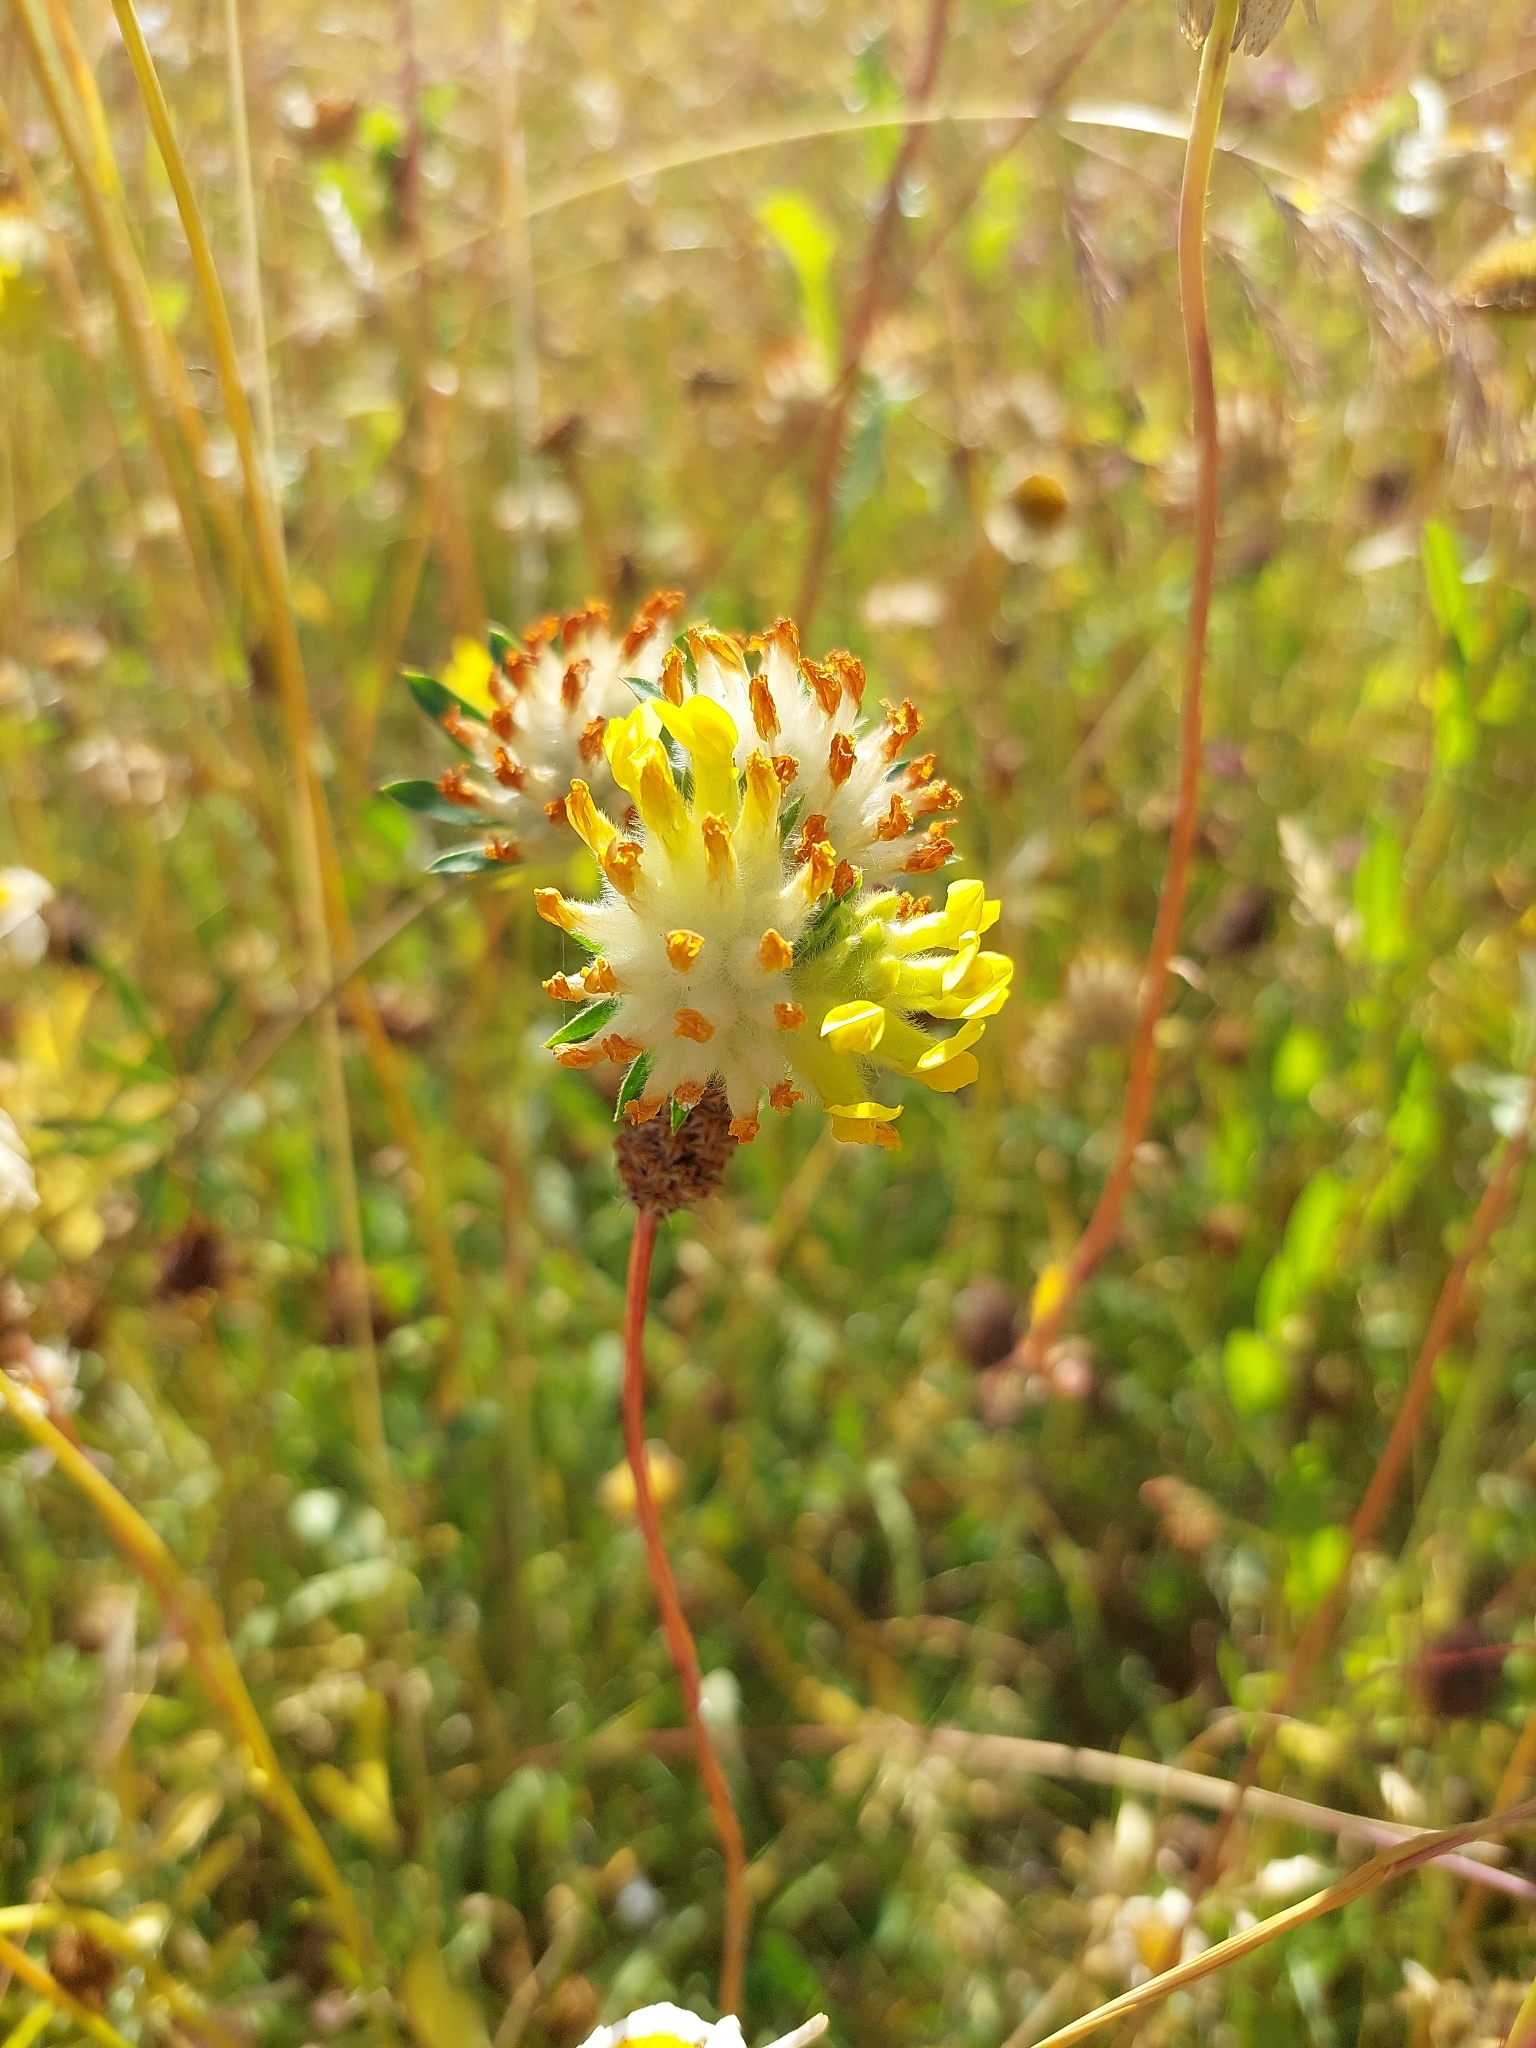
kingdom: Plantae
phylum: Tracheophyta
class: Magnoliopsida
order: Fabales
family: Fabaceae
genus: Anthyllis
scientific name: Anthyllis vulneraria
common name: Kidney vetch
